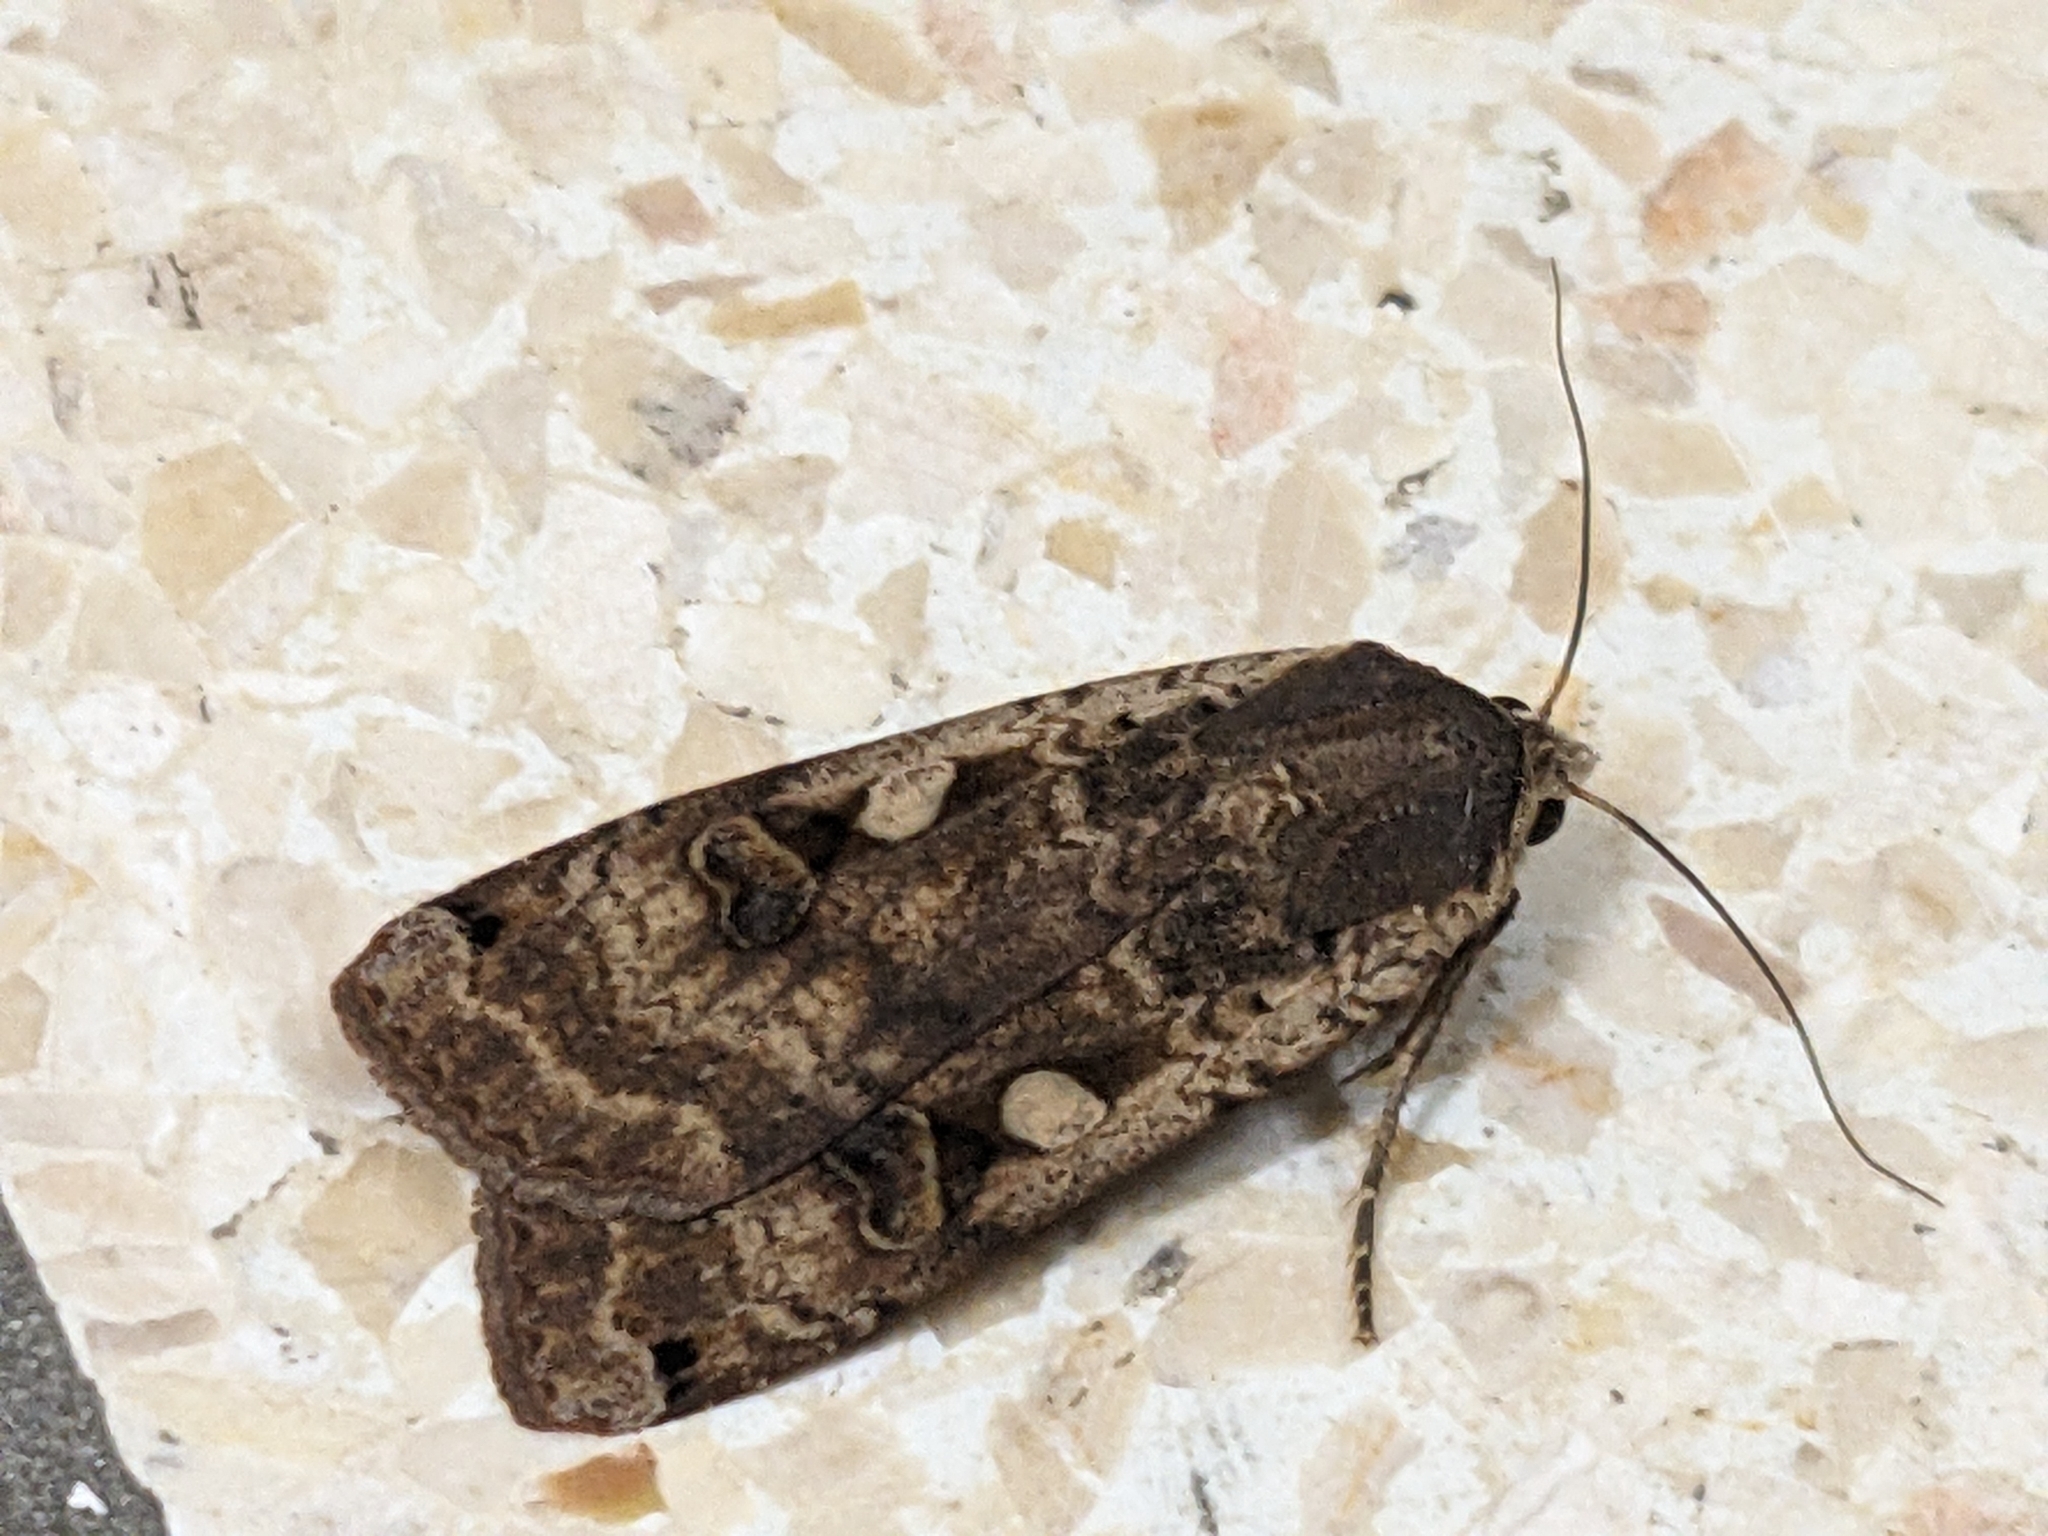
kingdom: Animalia
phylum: Arthropoda
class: Insecta
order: Lepidoptera
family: Noctuidae
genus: Noctua
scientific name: Noctua pronuba
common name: Large yellow underwing
